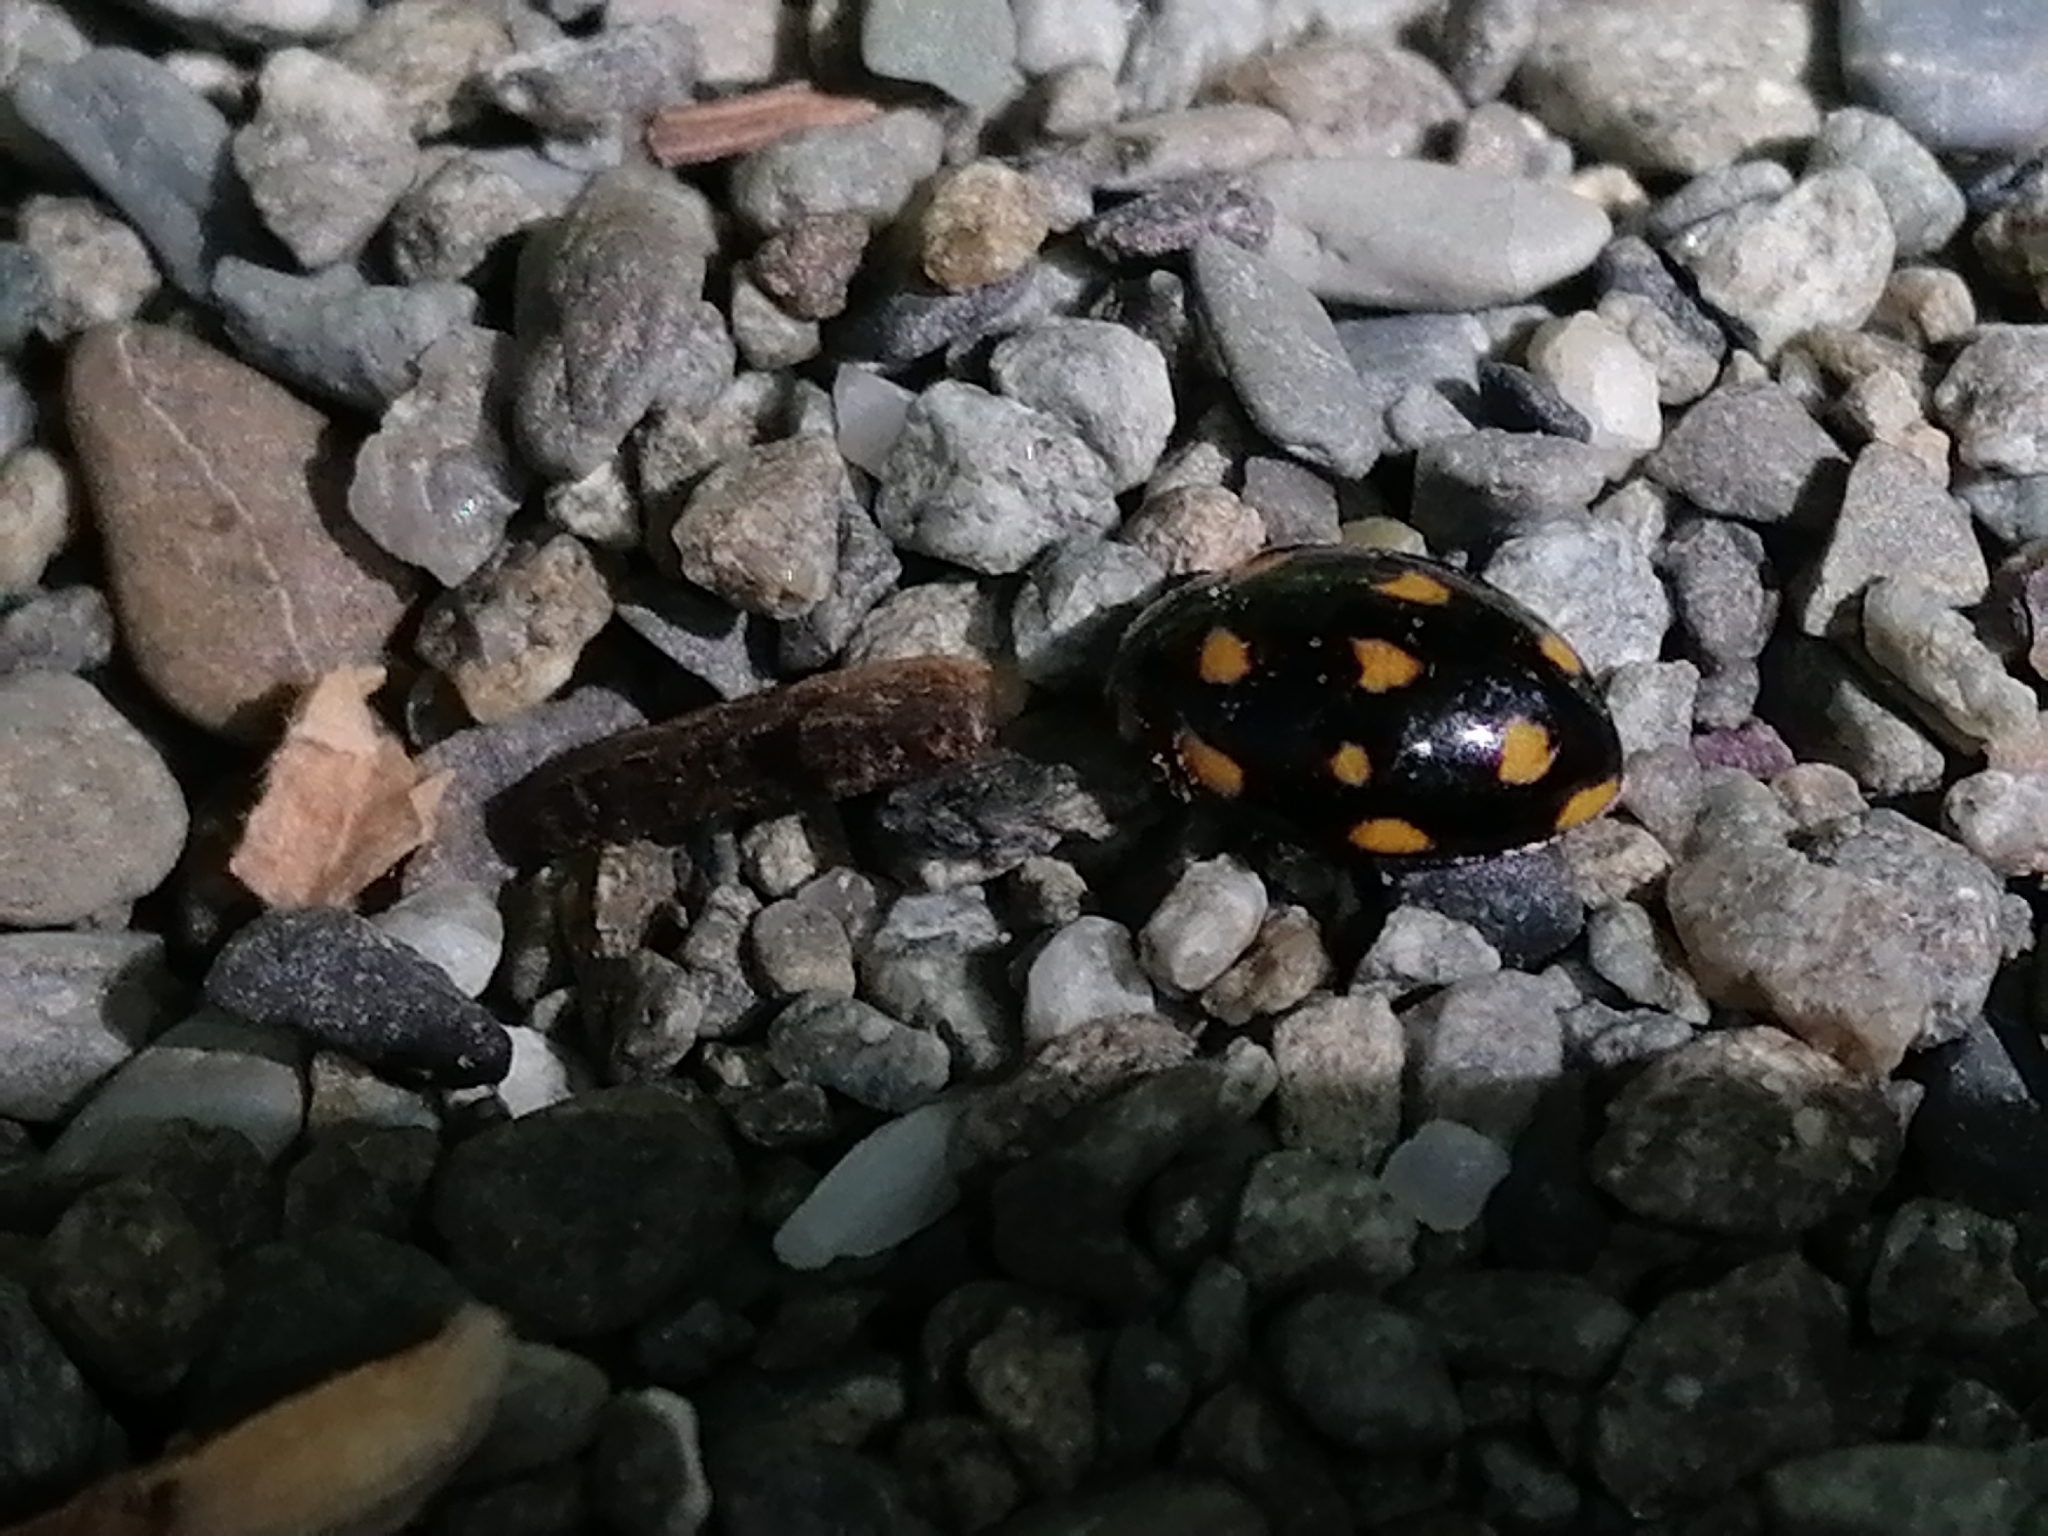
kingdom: Animalia
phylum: Arthropoda
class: Insecta
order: Coleoptera
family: Coccinellidae
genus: Coccinella
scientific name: Coccinella leonina
